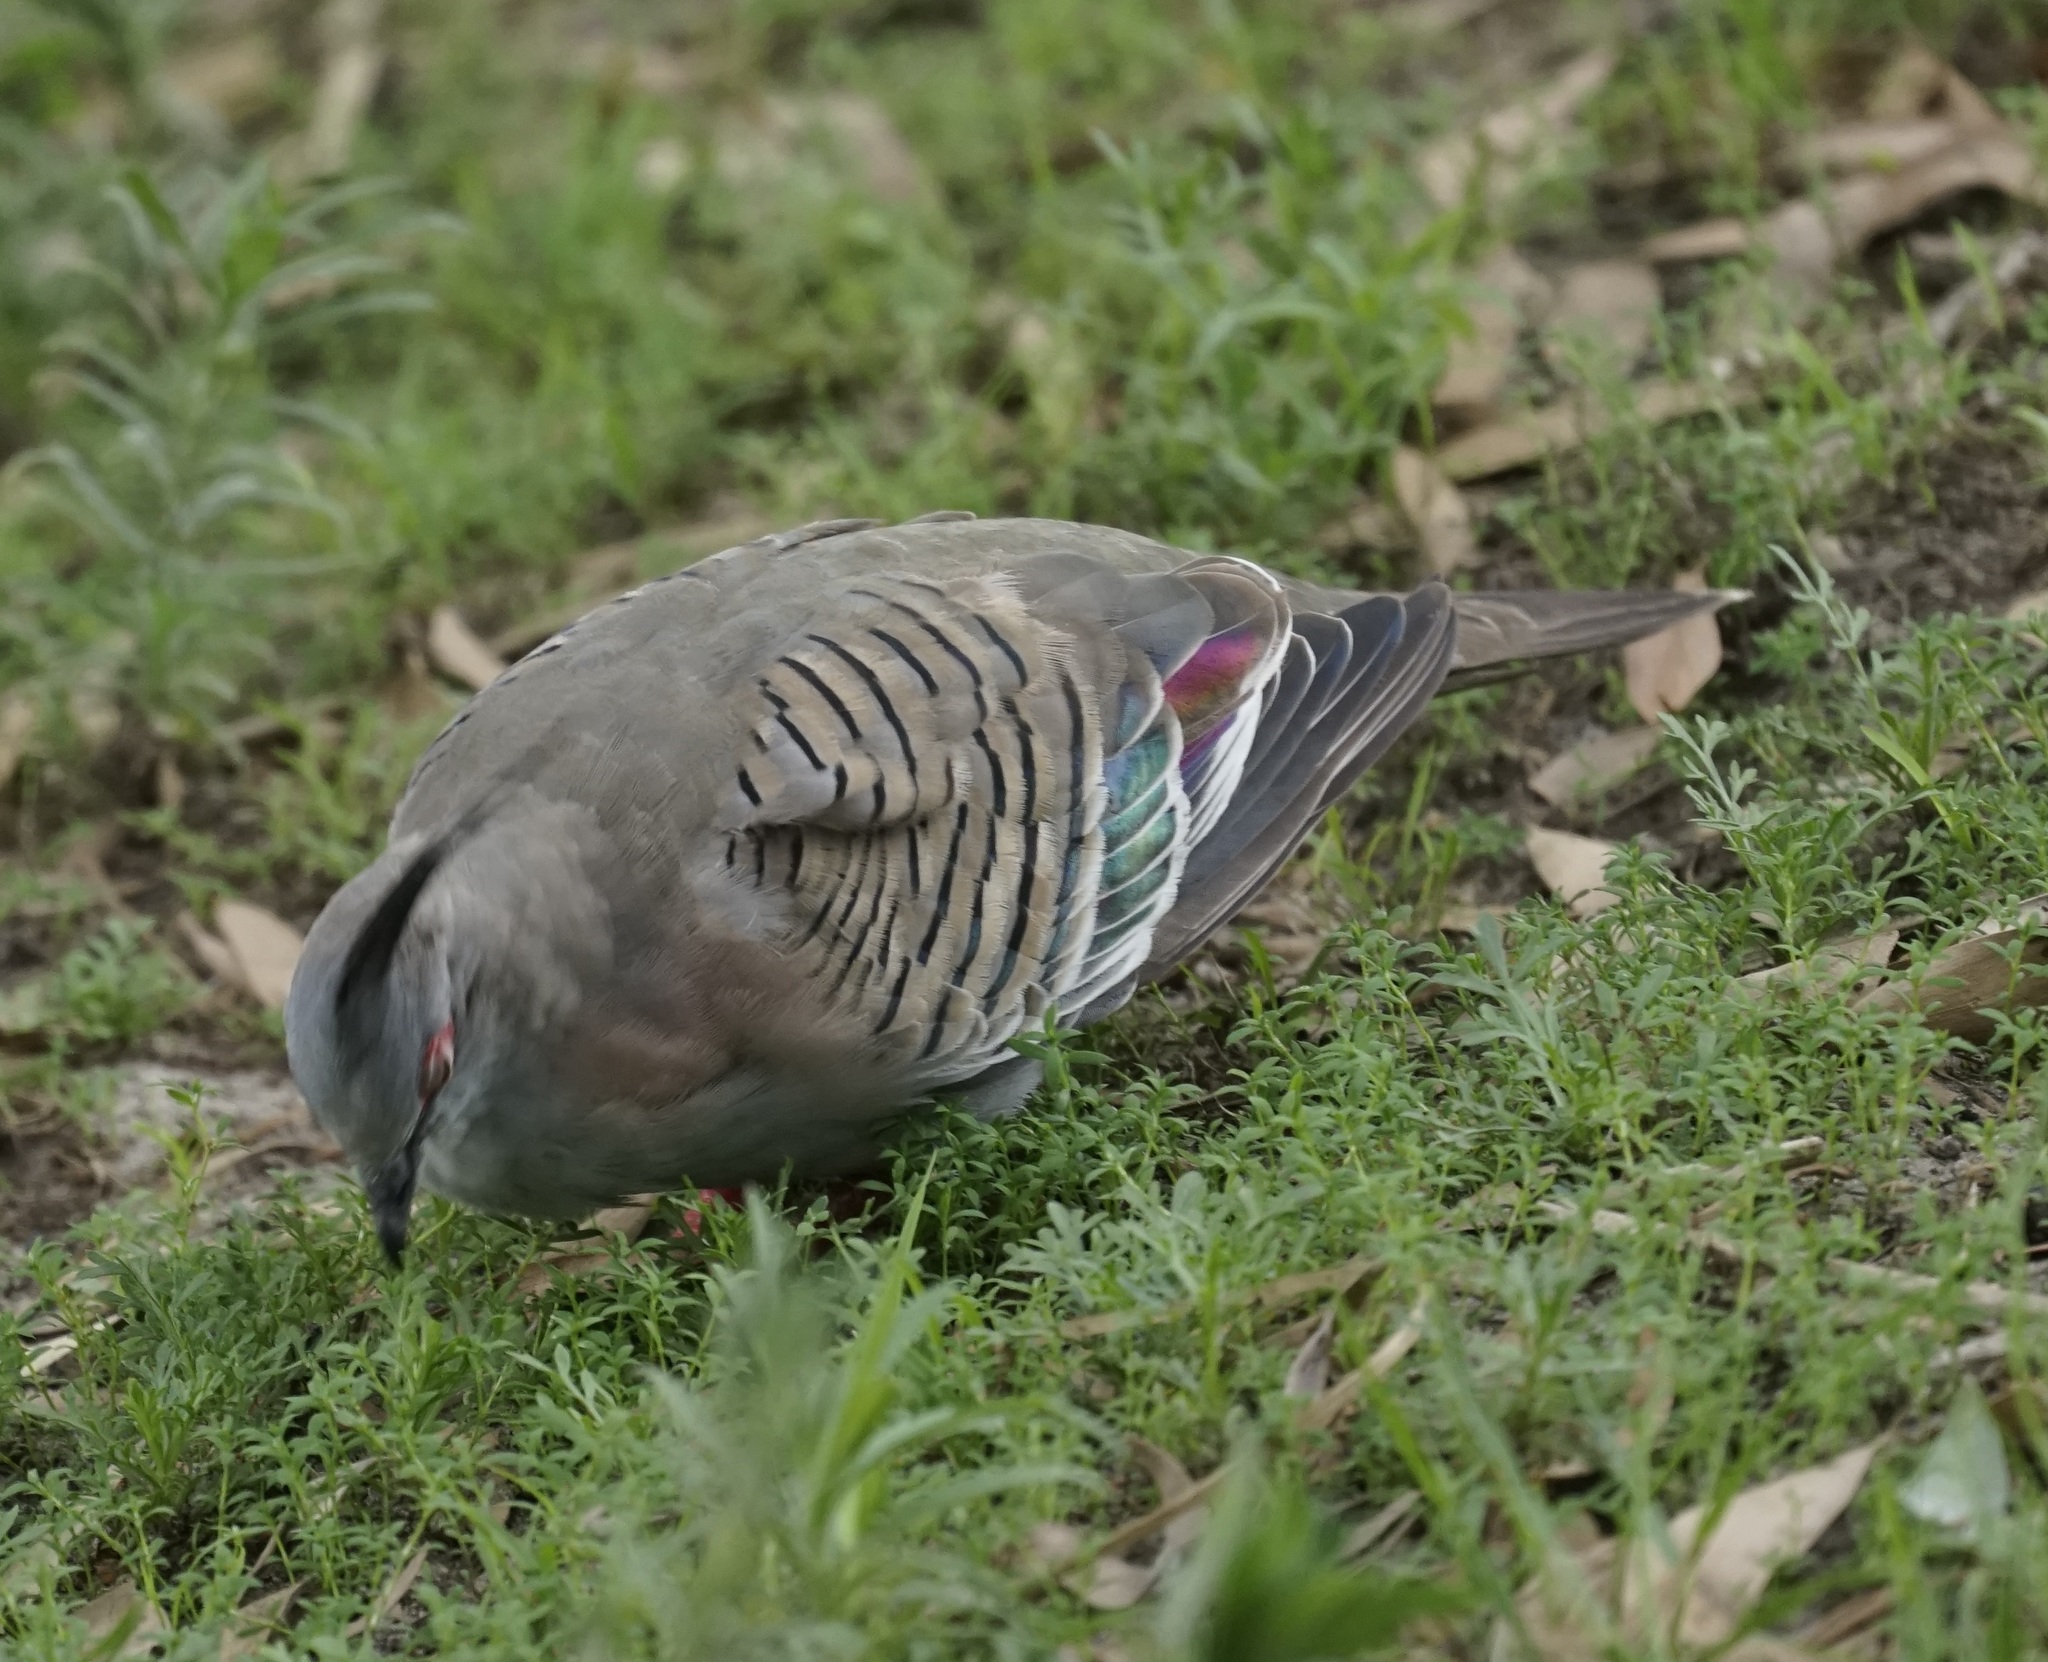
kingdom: Animalia
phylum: Chordata
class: Aves
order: Columbiformes
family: Columbidae
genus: Ocyphaps
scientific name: Ocyphaps lophotes
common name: Crested pigeon
